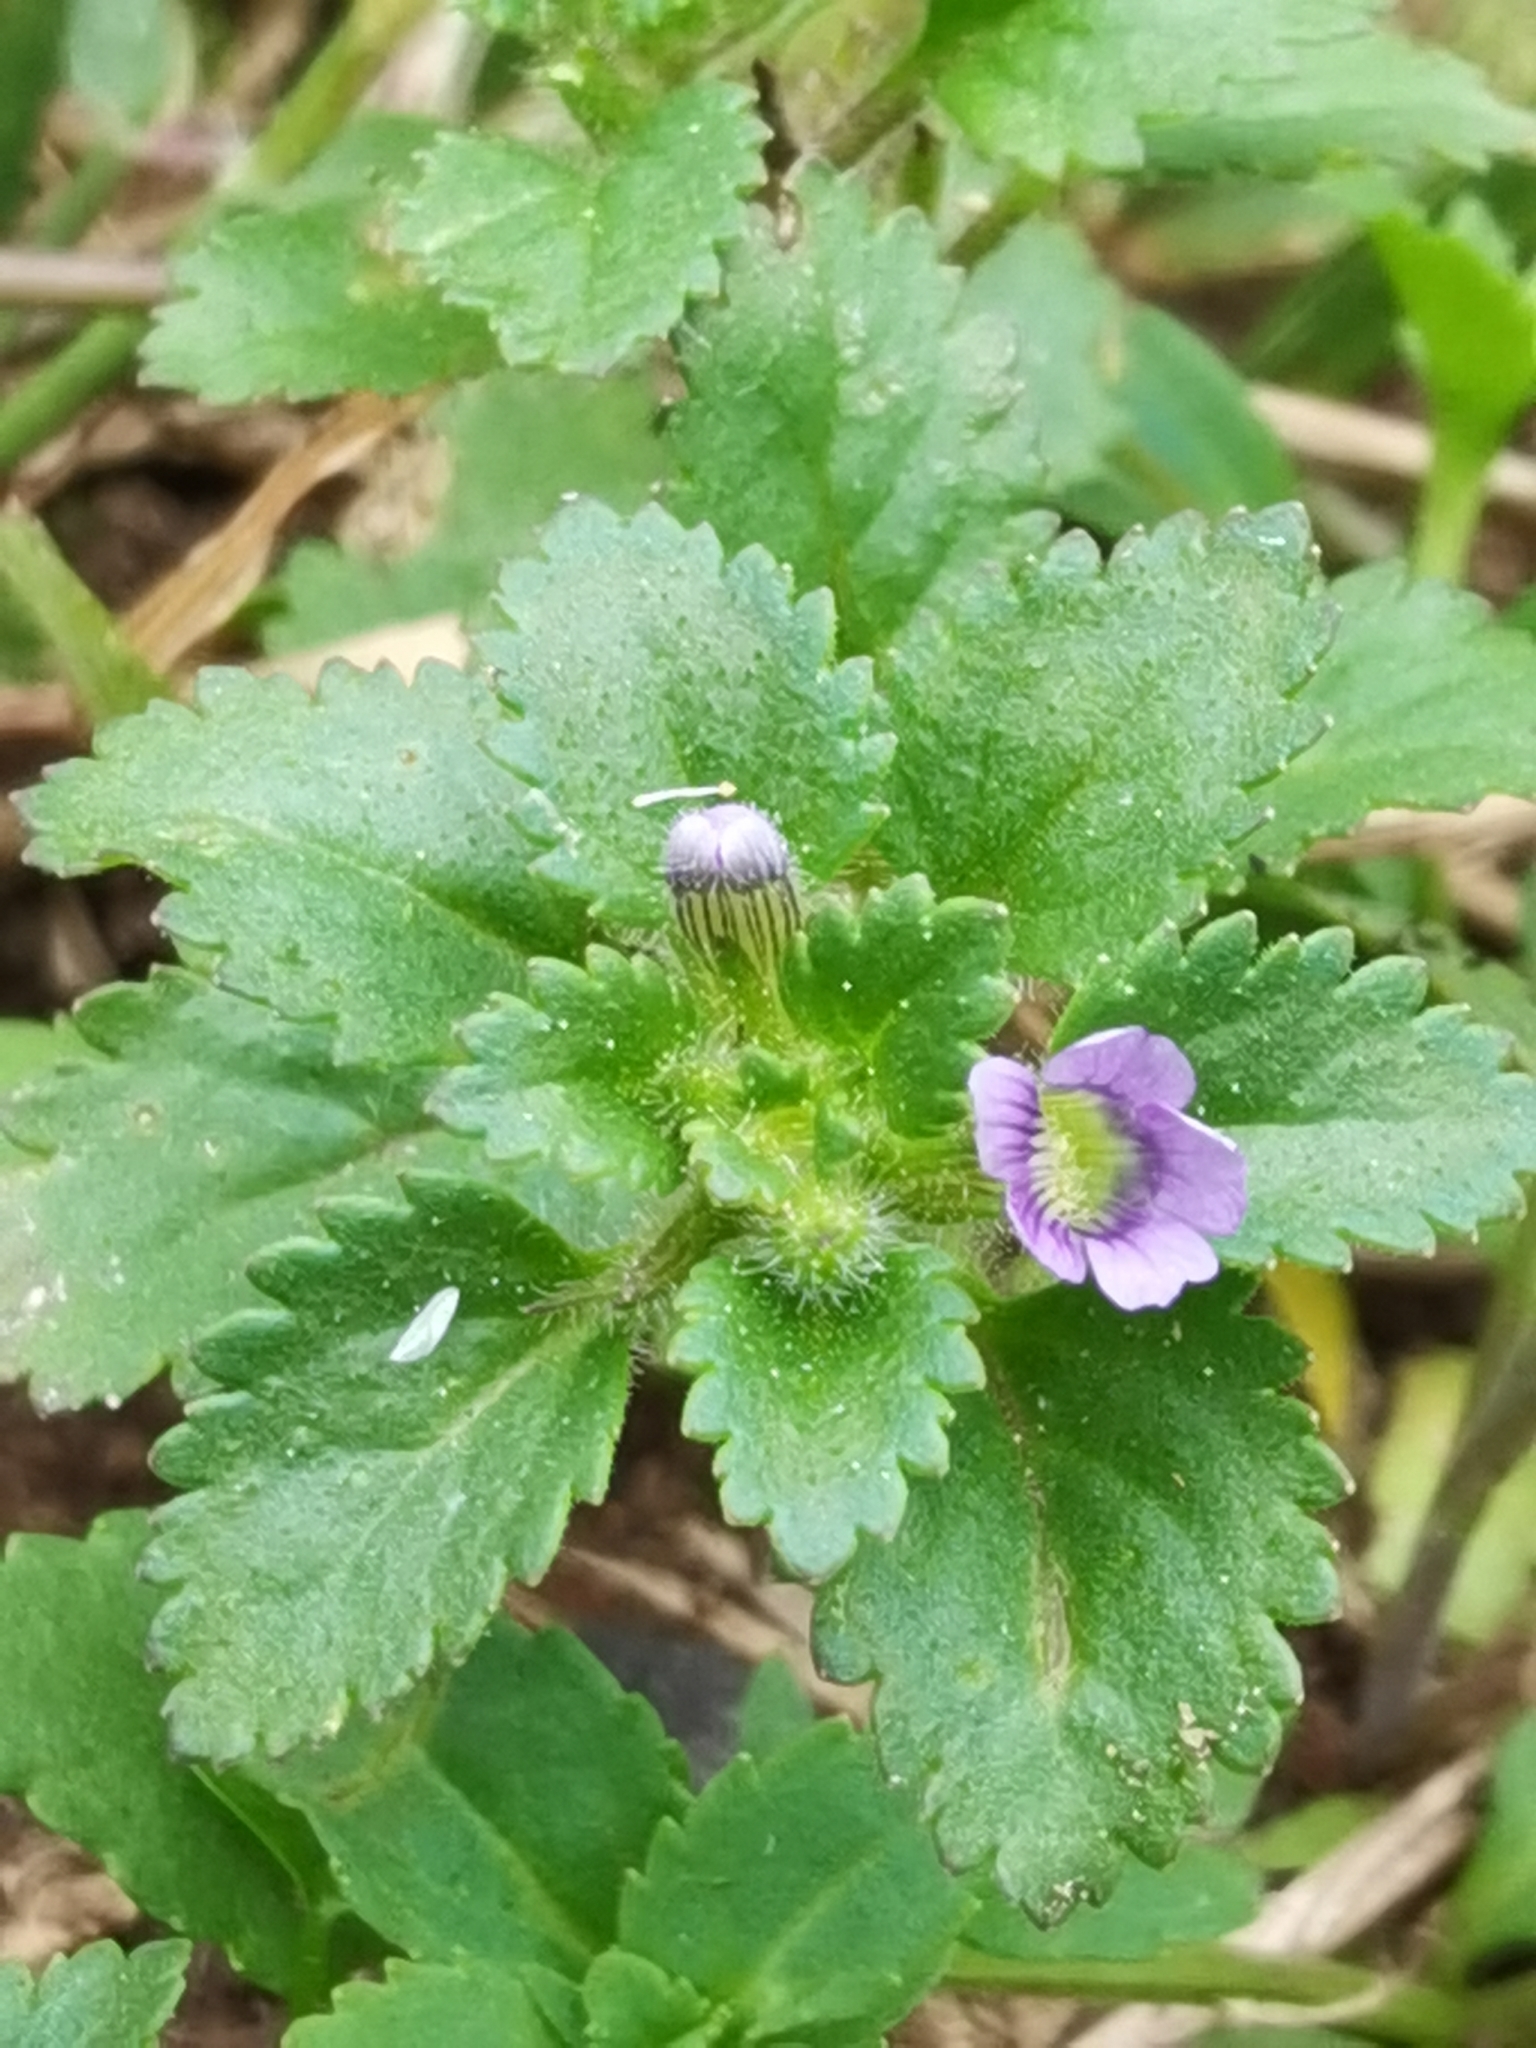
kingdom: Plantae
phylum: Tracheophyta
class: Magnoliopsida
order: Lamiales
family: Plantaginaceae
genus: Stemodia
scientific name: Stemodia verticillata
